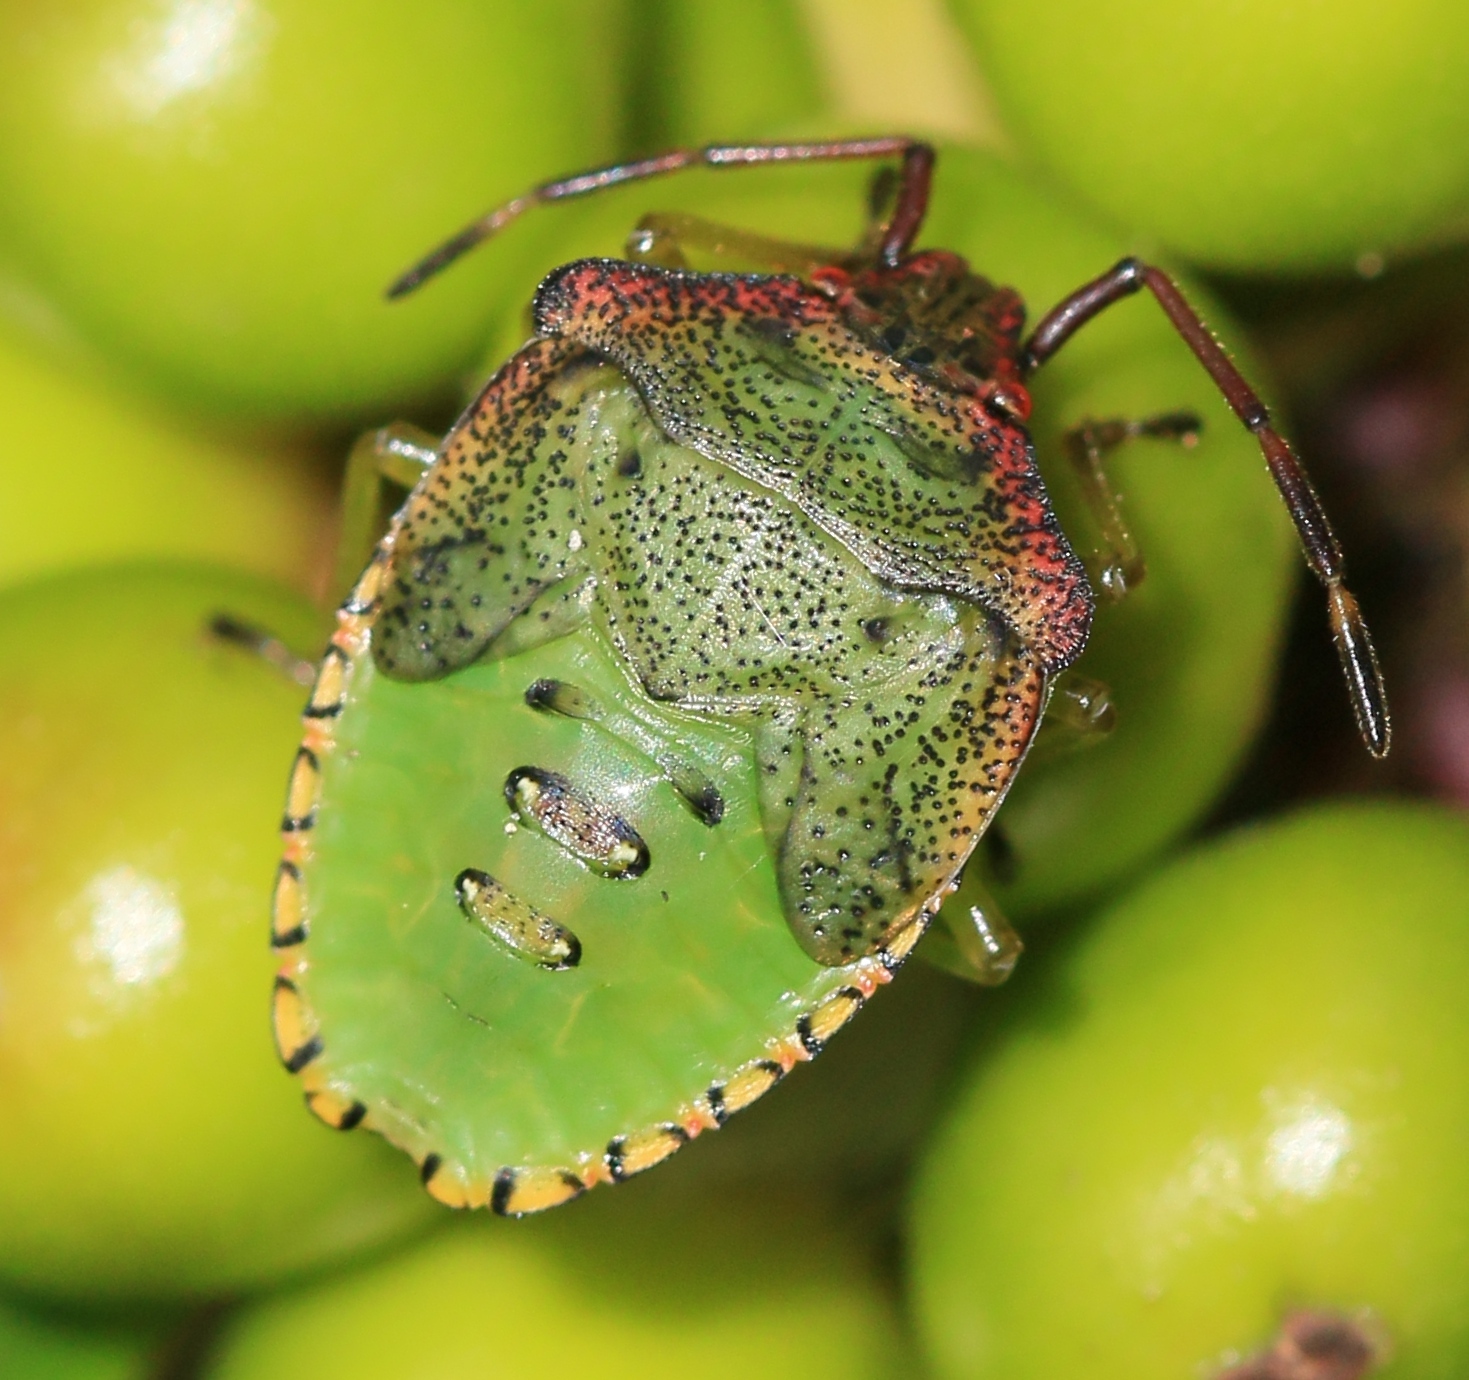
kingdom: Animalia
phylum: Arthropoda
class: Insecta
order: Hemiptera
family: Acanthosomatidae
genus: Acanthosoma
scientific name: Acanthosoma haemorrhoidale
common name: Hawthorn shieldbug
